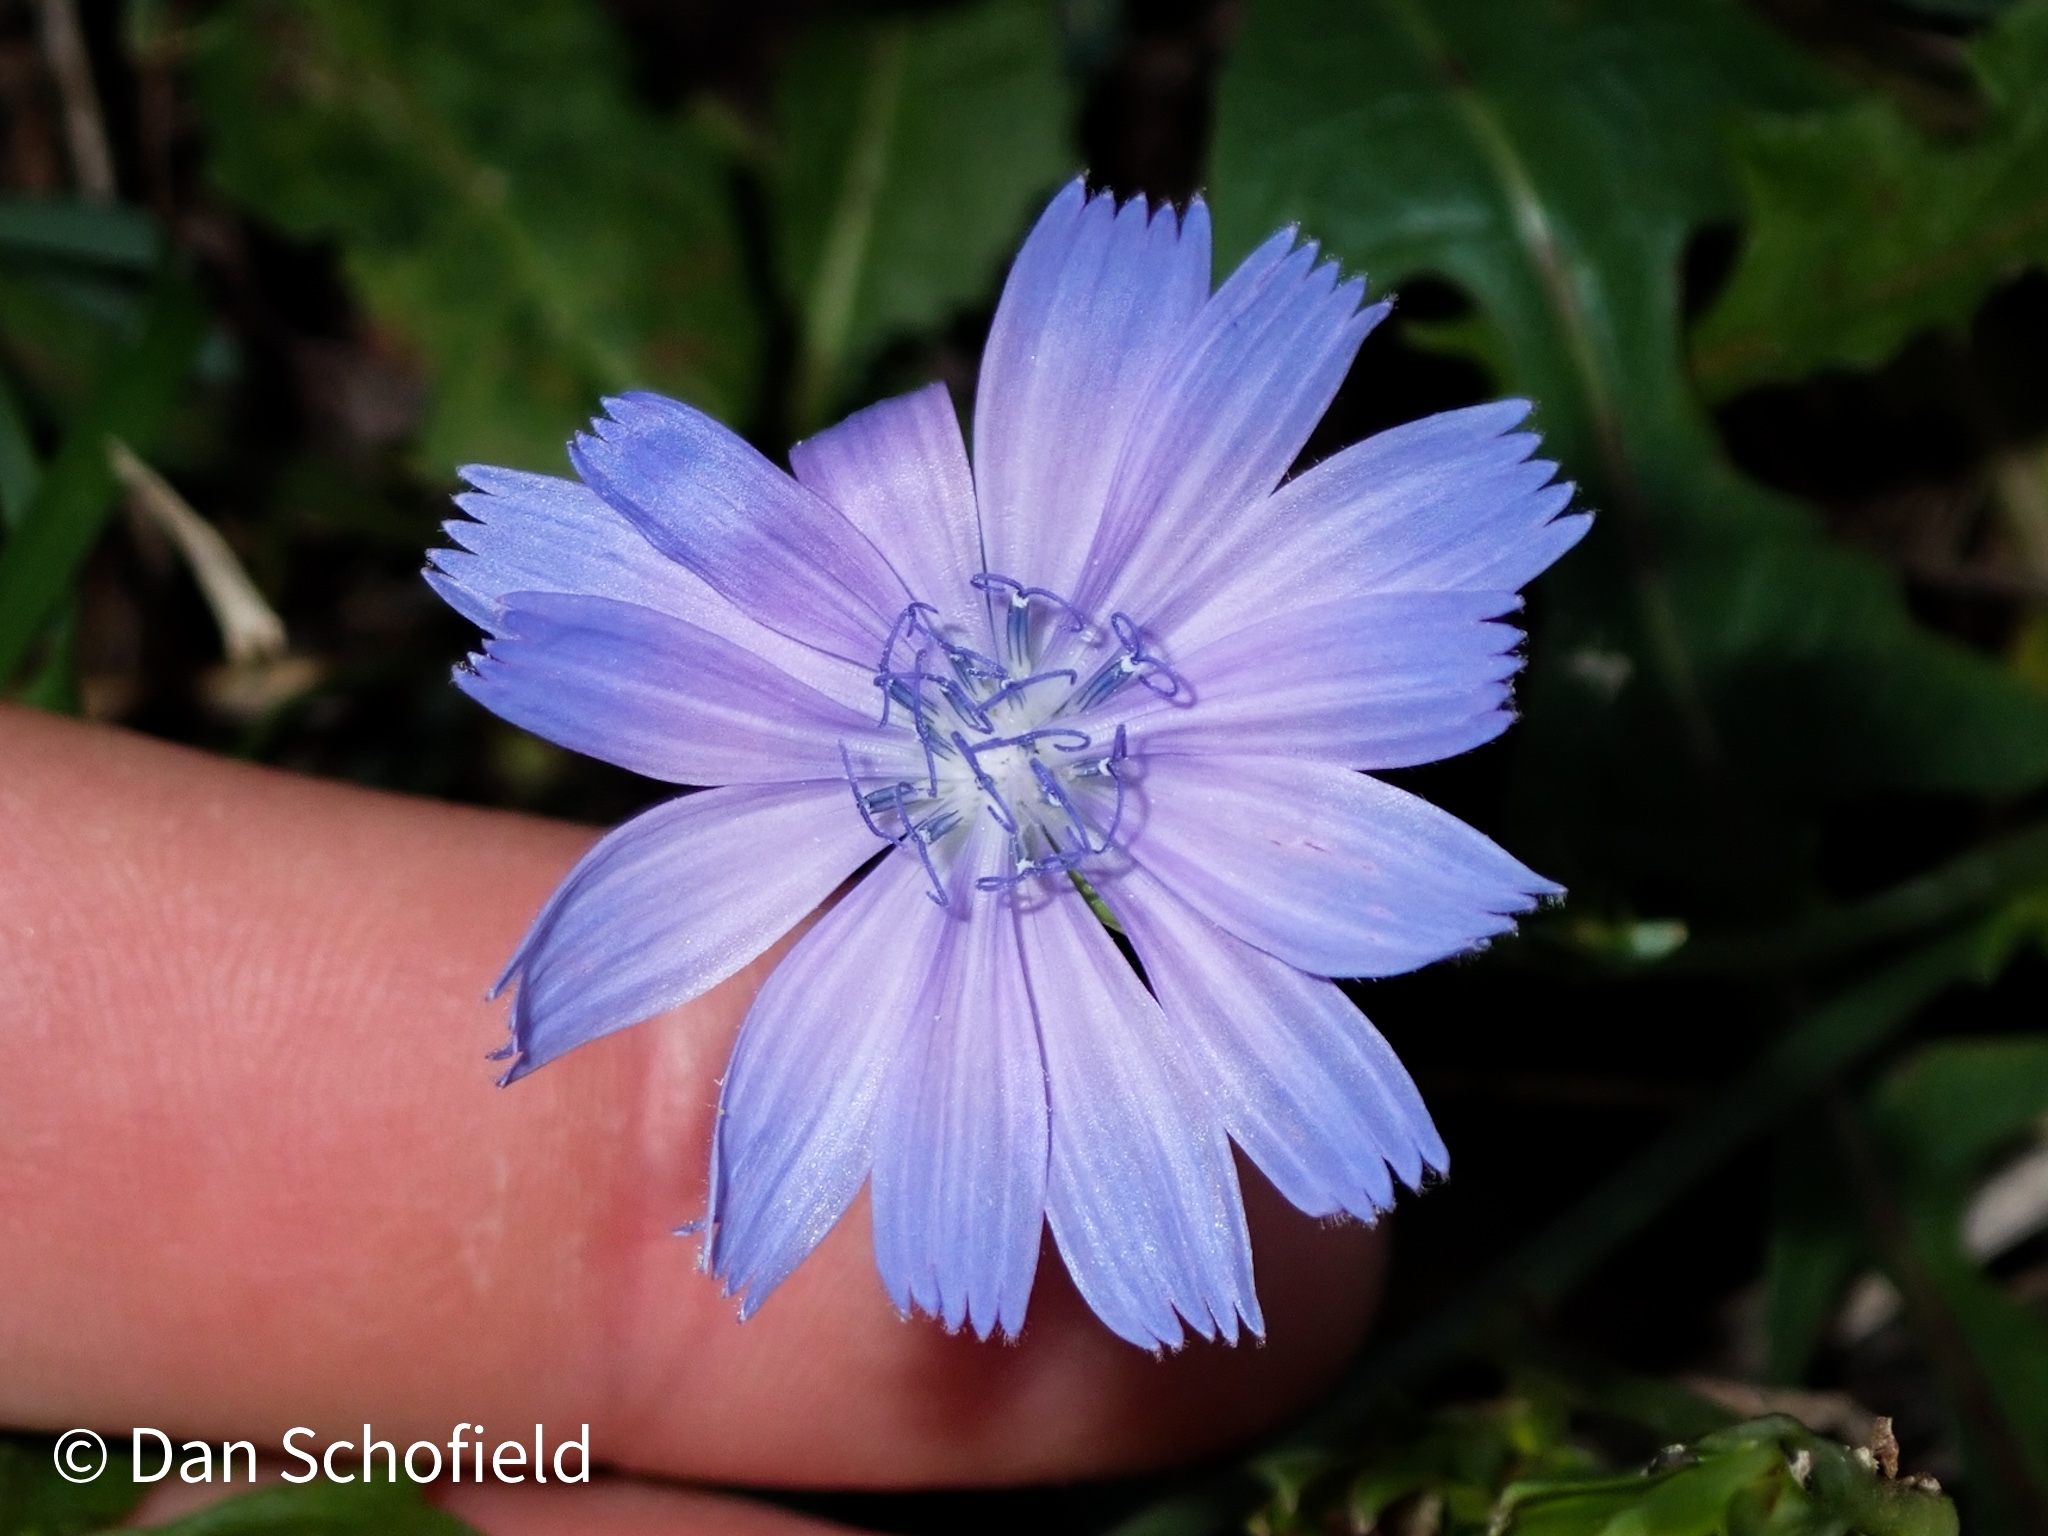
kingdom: Plantae
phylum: Tracheophyta
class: Magnoliopsida
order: Asterales
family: Asteraceae
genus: Cichorium
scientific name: Cichorium intybus
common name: Chicory
